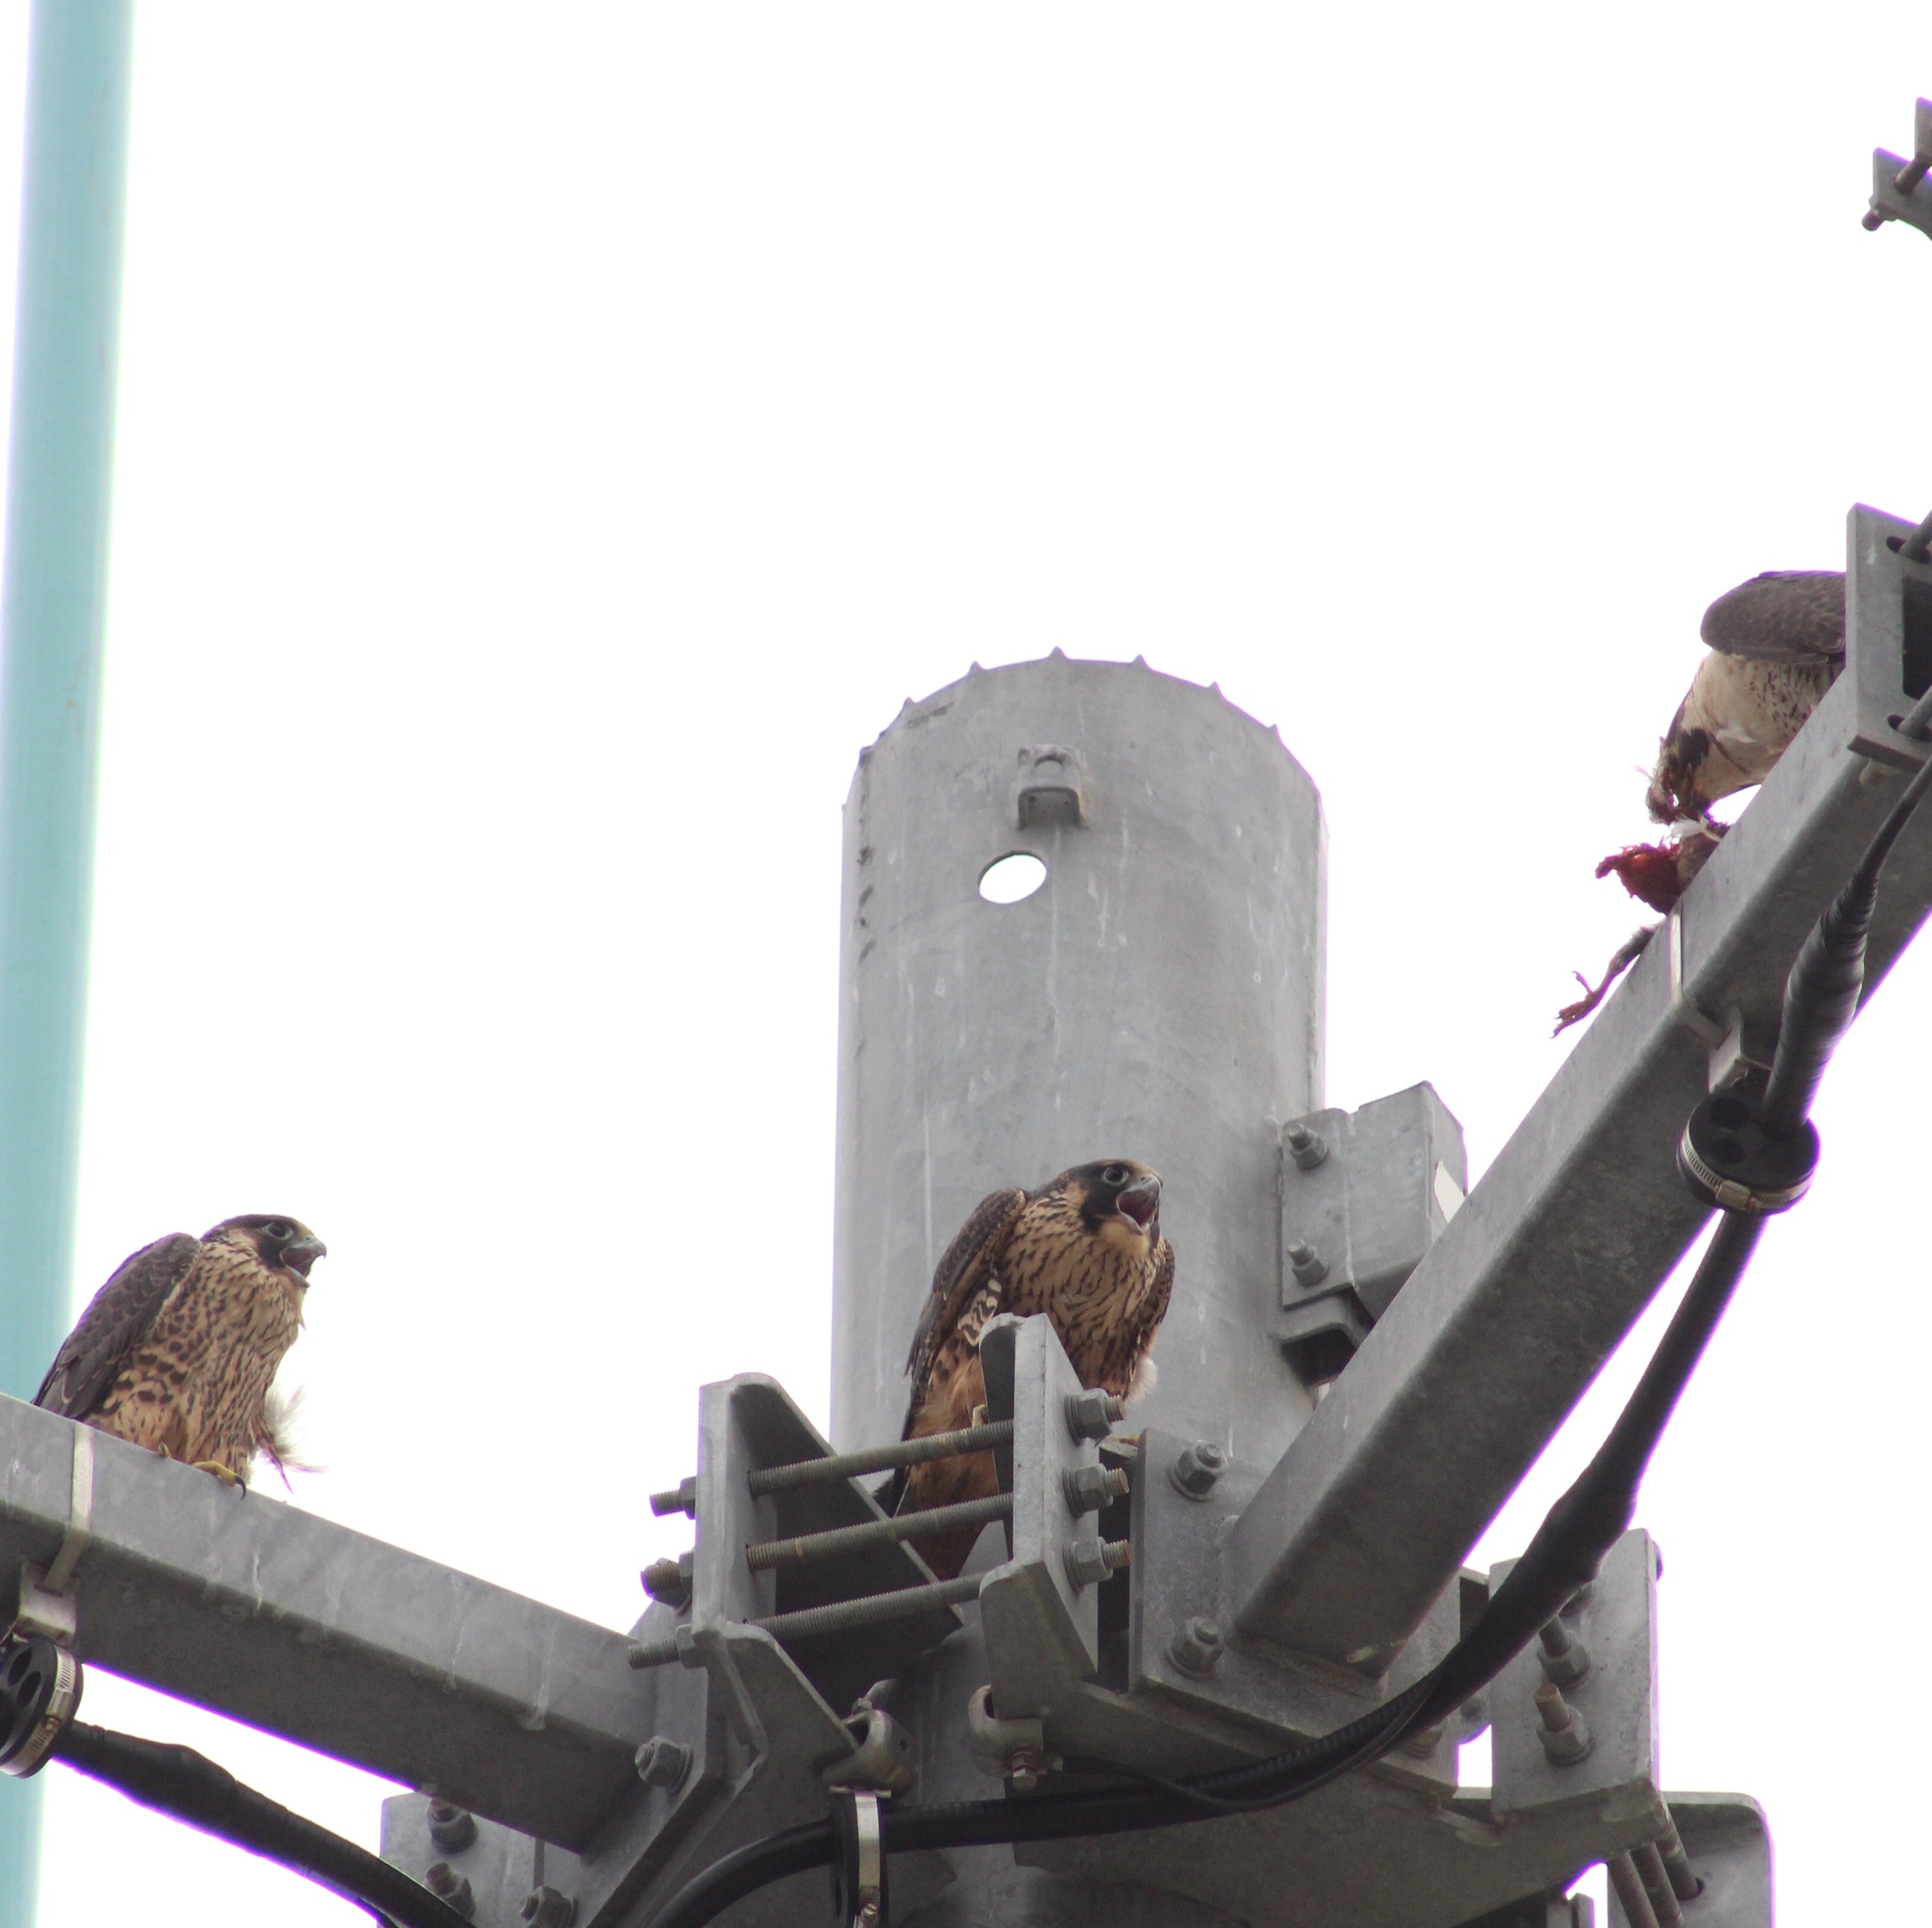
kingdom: Animalia
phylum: Chordata
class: Aves
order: Falconiformes
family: Falconidae
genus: Falco
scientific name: Falco peregrinus
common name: Peregrine falcon
